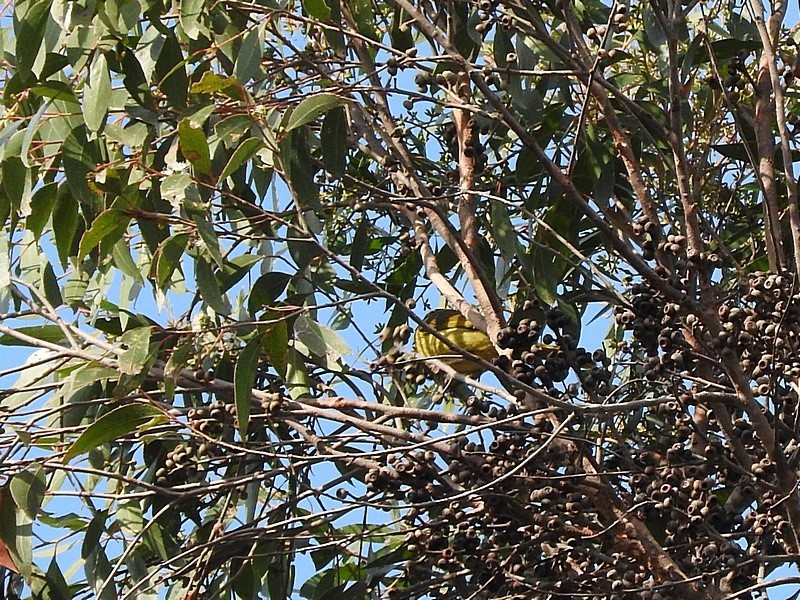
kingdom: Animalia
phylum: Chordata
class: Aves
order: Passeriformes
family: Meliphagidae
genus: Lichenostomus
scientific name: Lichenostomus melanops
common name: Yellow-tufted honeyeater
